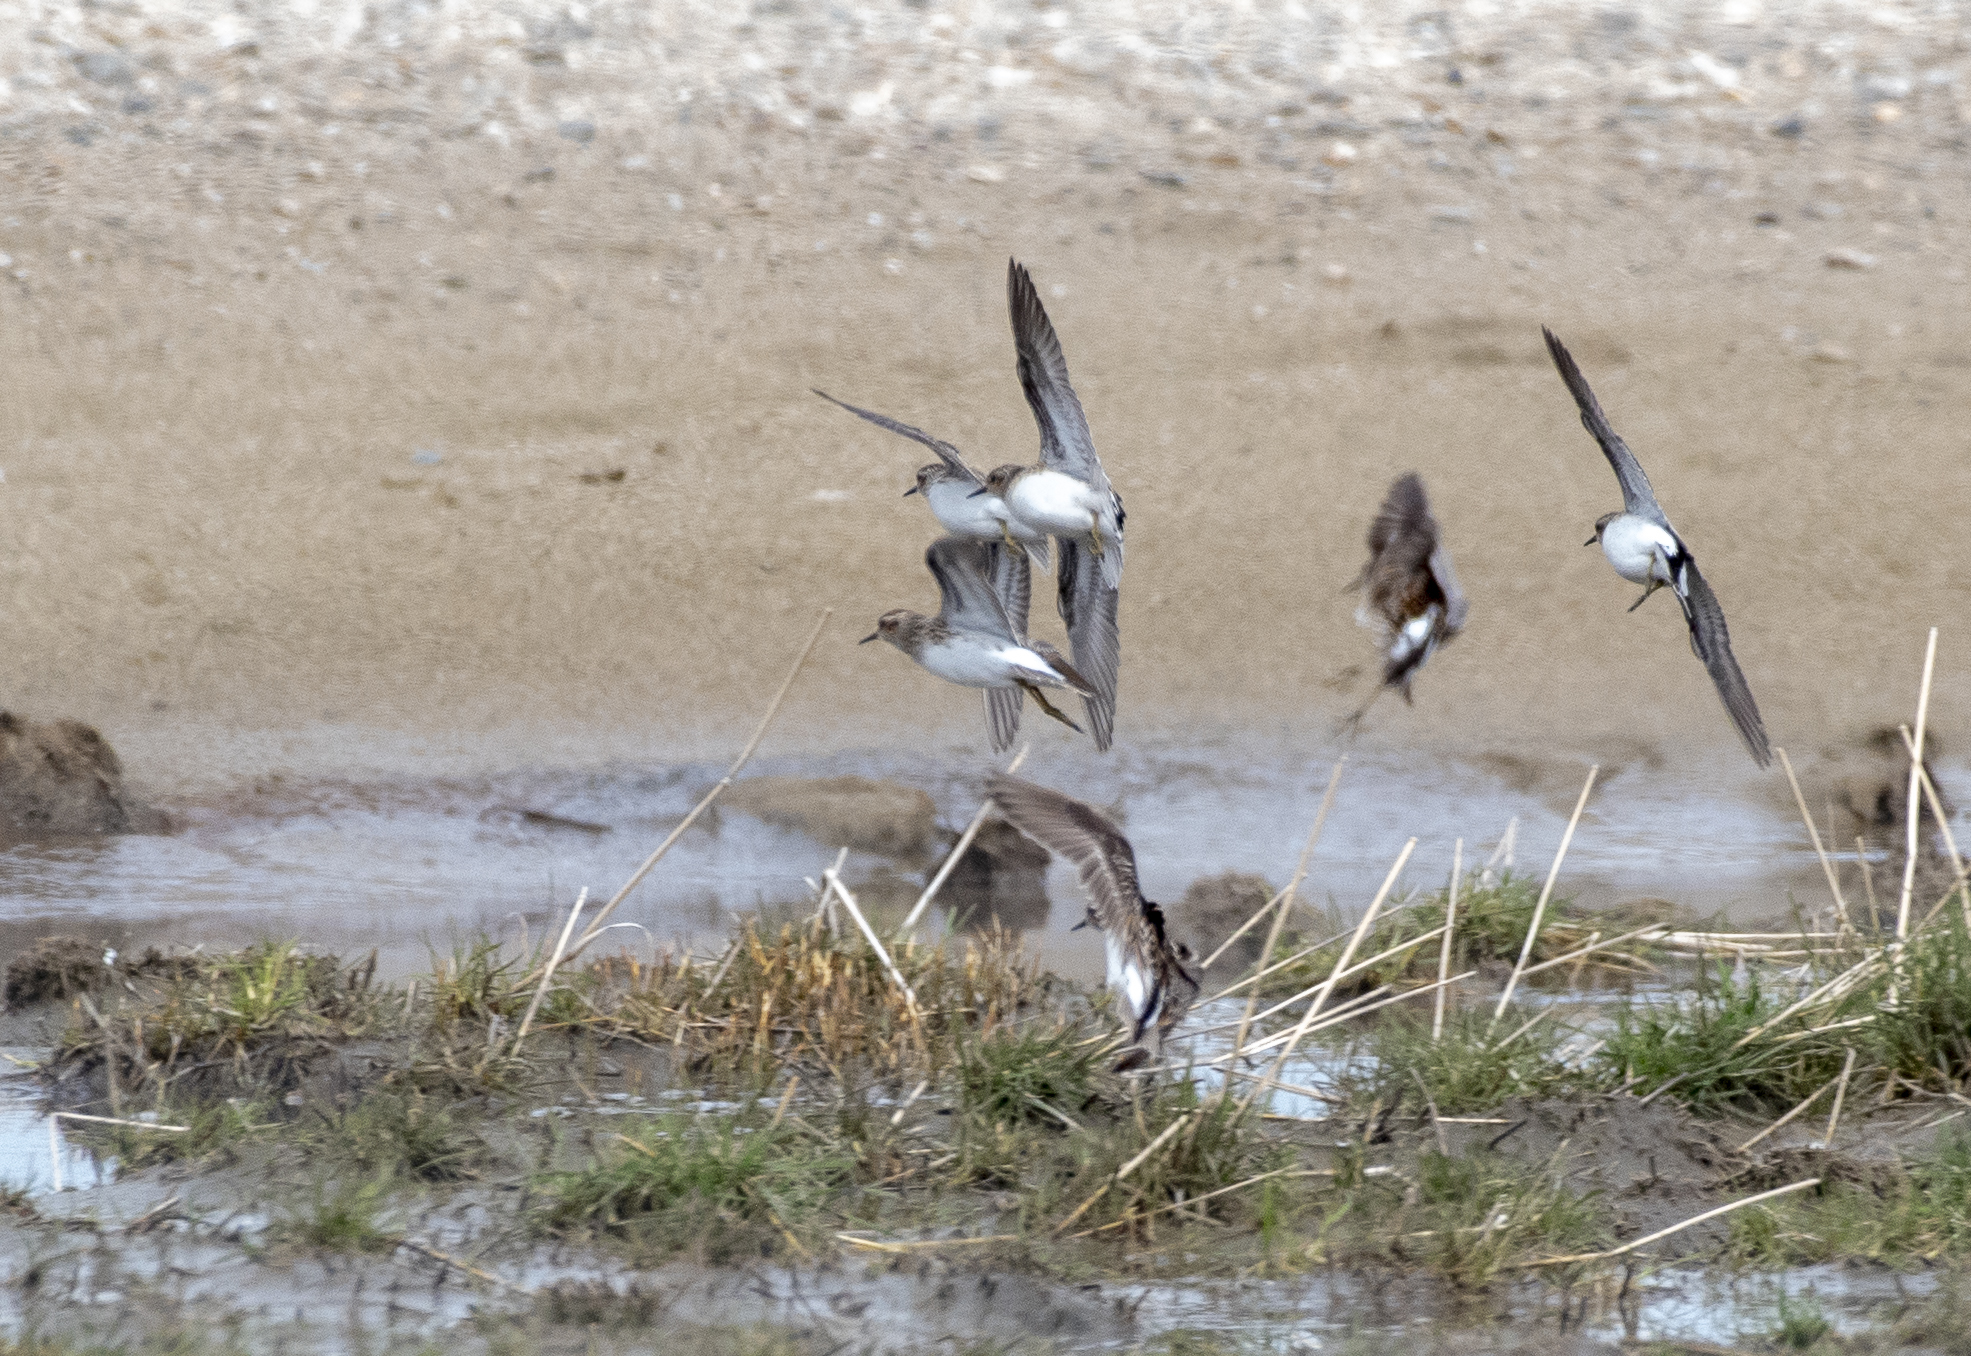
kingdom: Animalia
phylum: Chordata
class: Aves
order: Charadriiformes
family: Scolopacidae
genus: Calidris
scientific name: Calidris subminuta
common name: Long-toed stint
